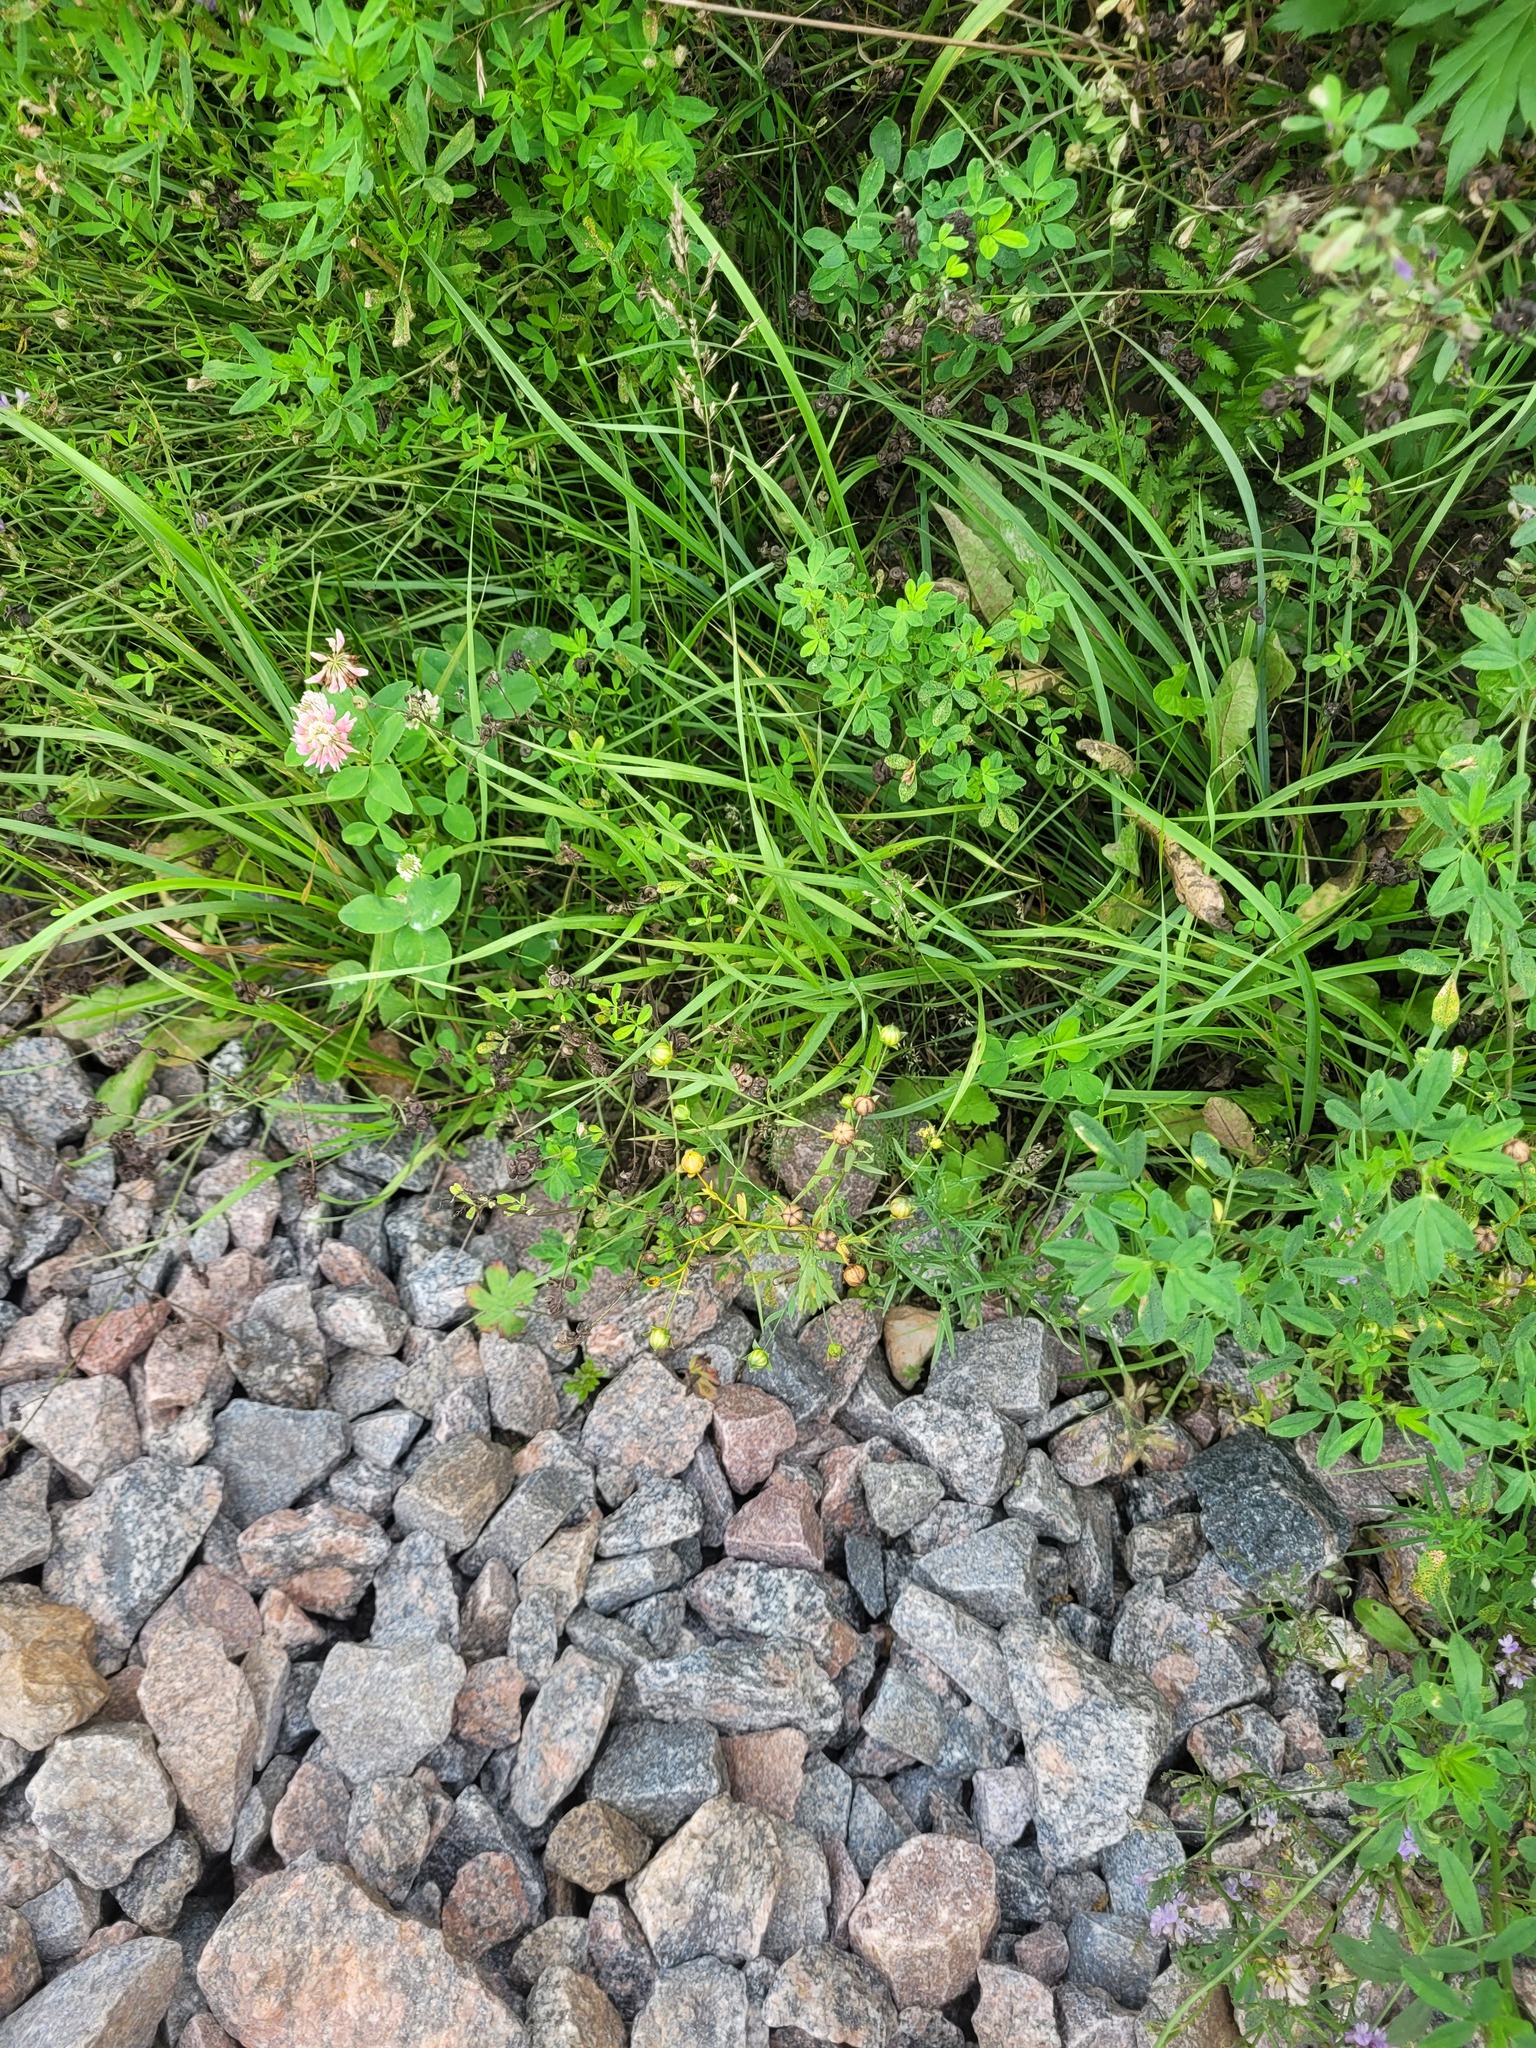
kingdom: Plantae
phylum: Tracheophyta
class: Magnoliopsida
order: Malpighiales
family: Linaceae
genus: Linum
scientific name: Linum usitatissimum
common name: Flax
